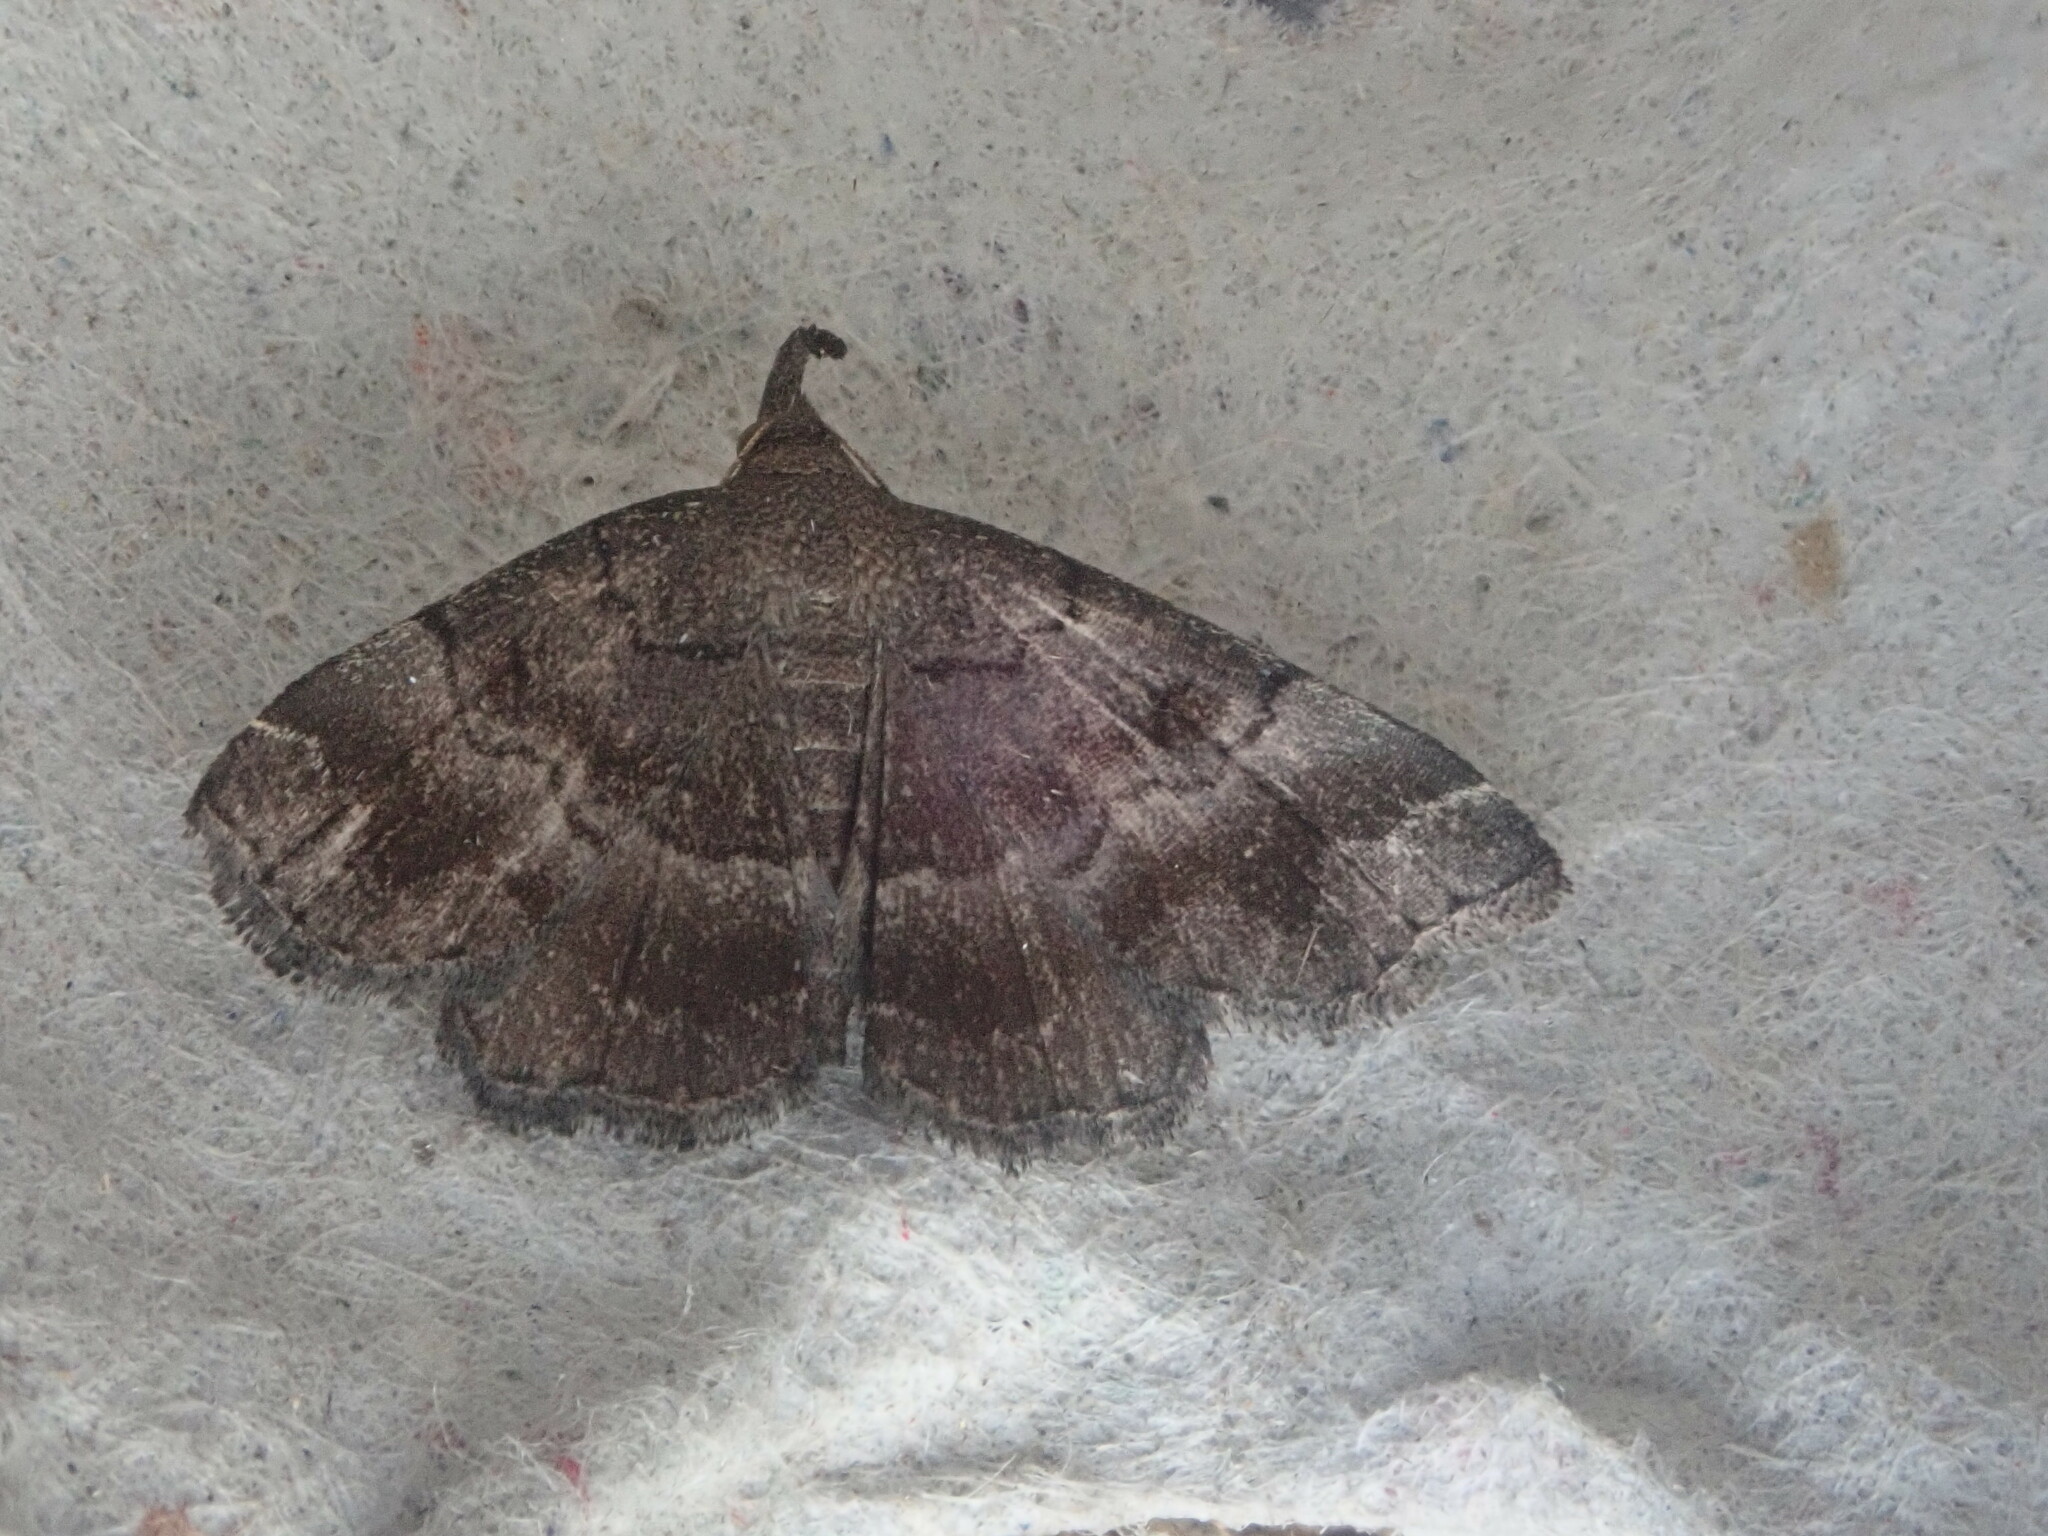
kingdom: Animalia
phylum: Arthropoda
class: Insecta
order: Lepidoptera
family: Erebidae
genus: Phalaenostola
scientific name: Phalaenostola larentioides
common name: Black-banded owlet
